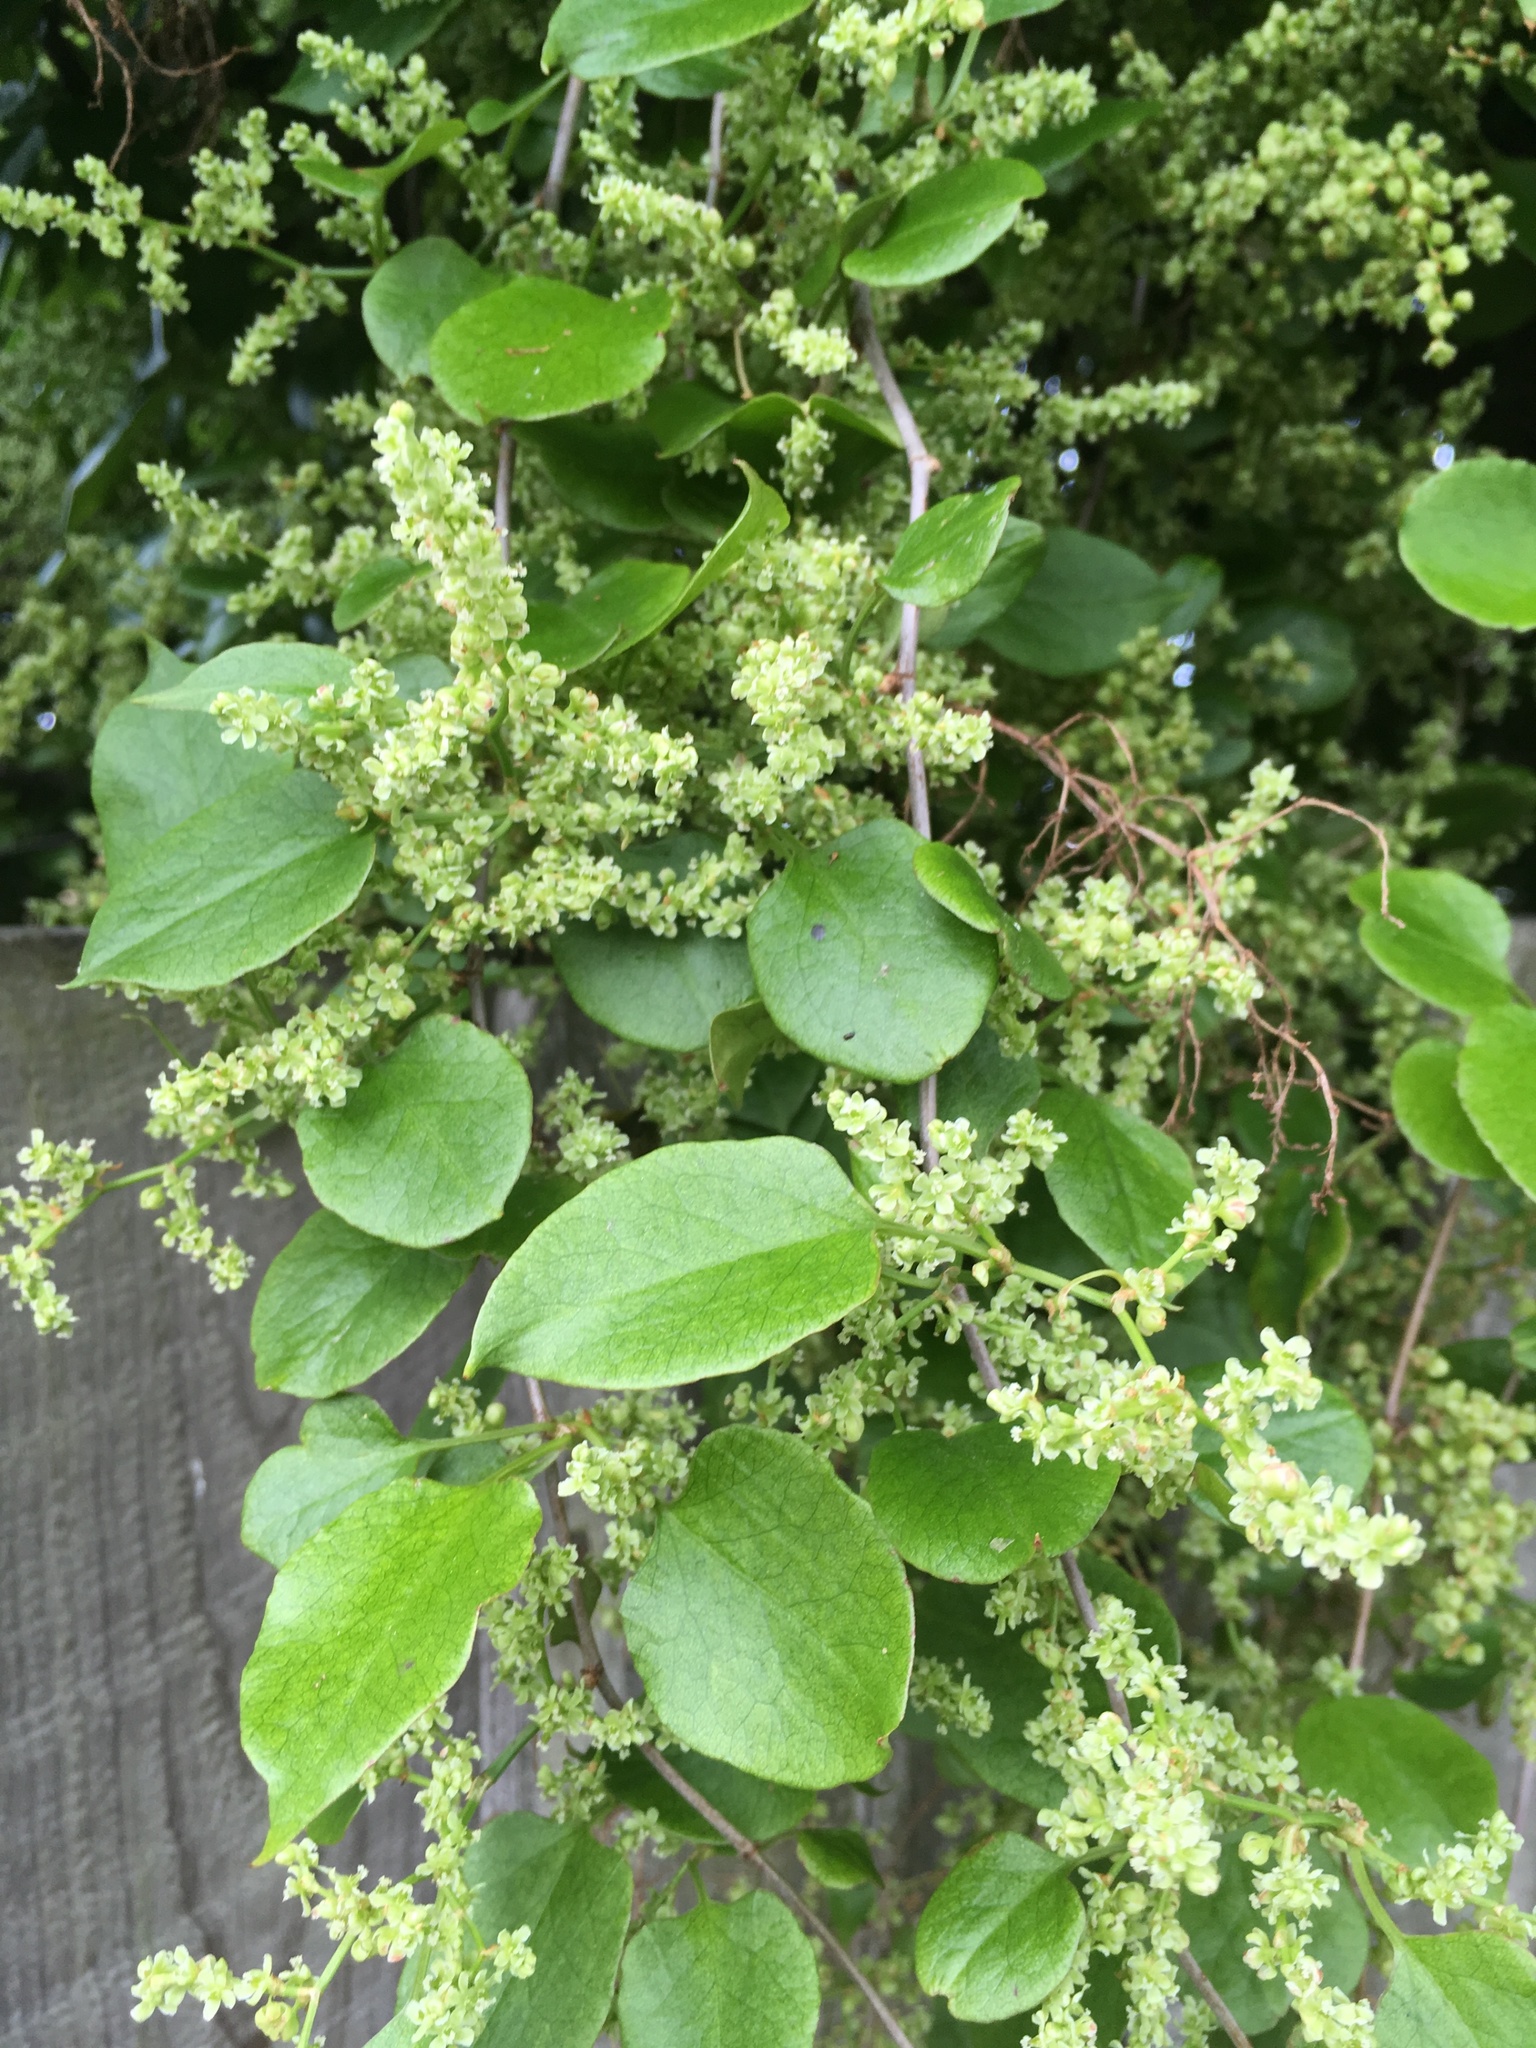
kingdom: Plantae
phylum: Tracheophyta
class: Magnoliopsida
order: Caryophyllales
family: Polygonaceae
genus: Muehlenbeckia
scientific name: Muehlenbeckia australis
